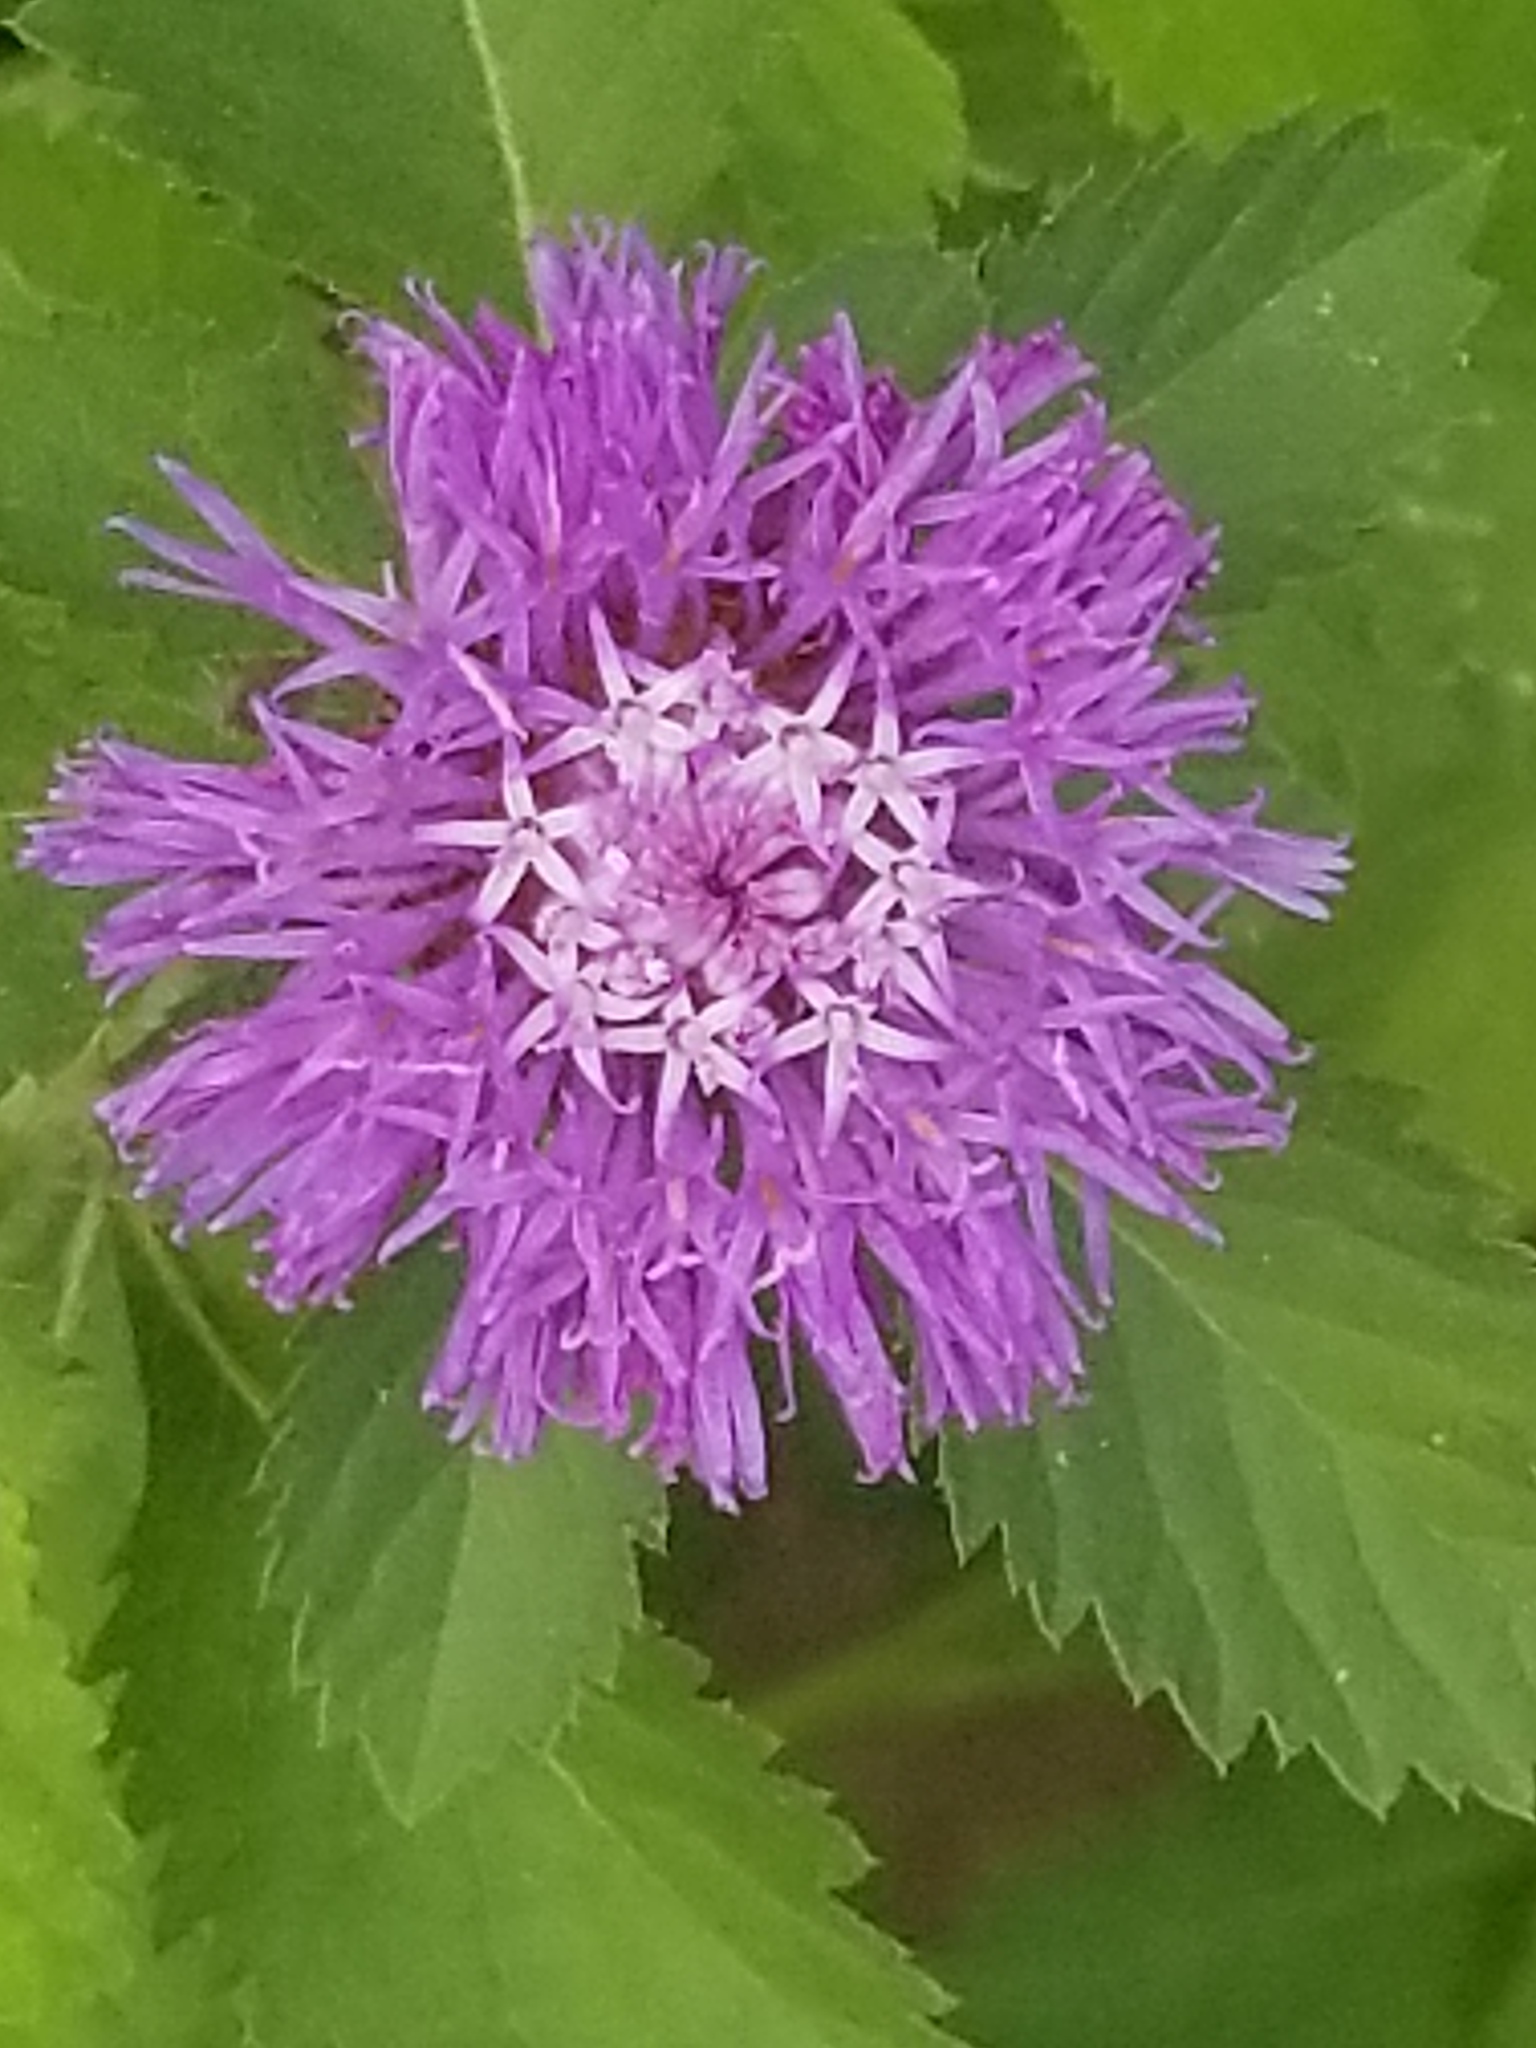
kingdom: Plantae
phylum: Tracheophyta
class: Magnoliopsida
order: Asterales
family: Asteraceae
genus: Centratherum
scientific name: Centratherum punctatum
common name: Larkdaisy
